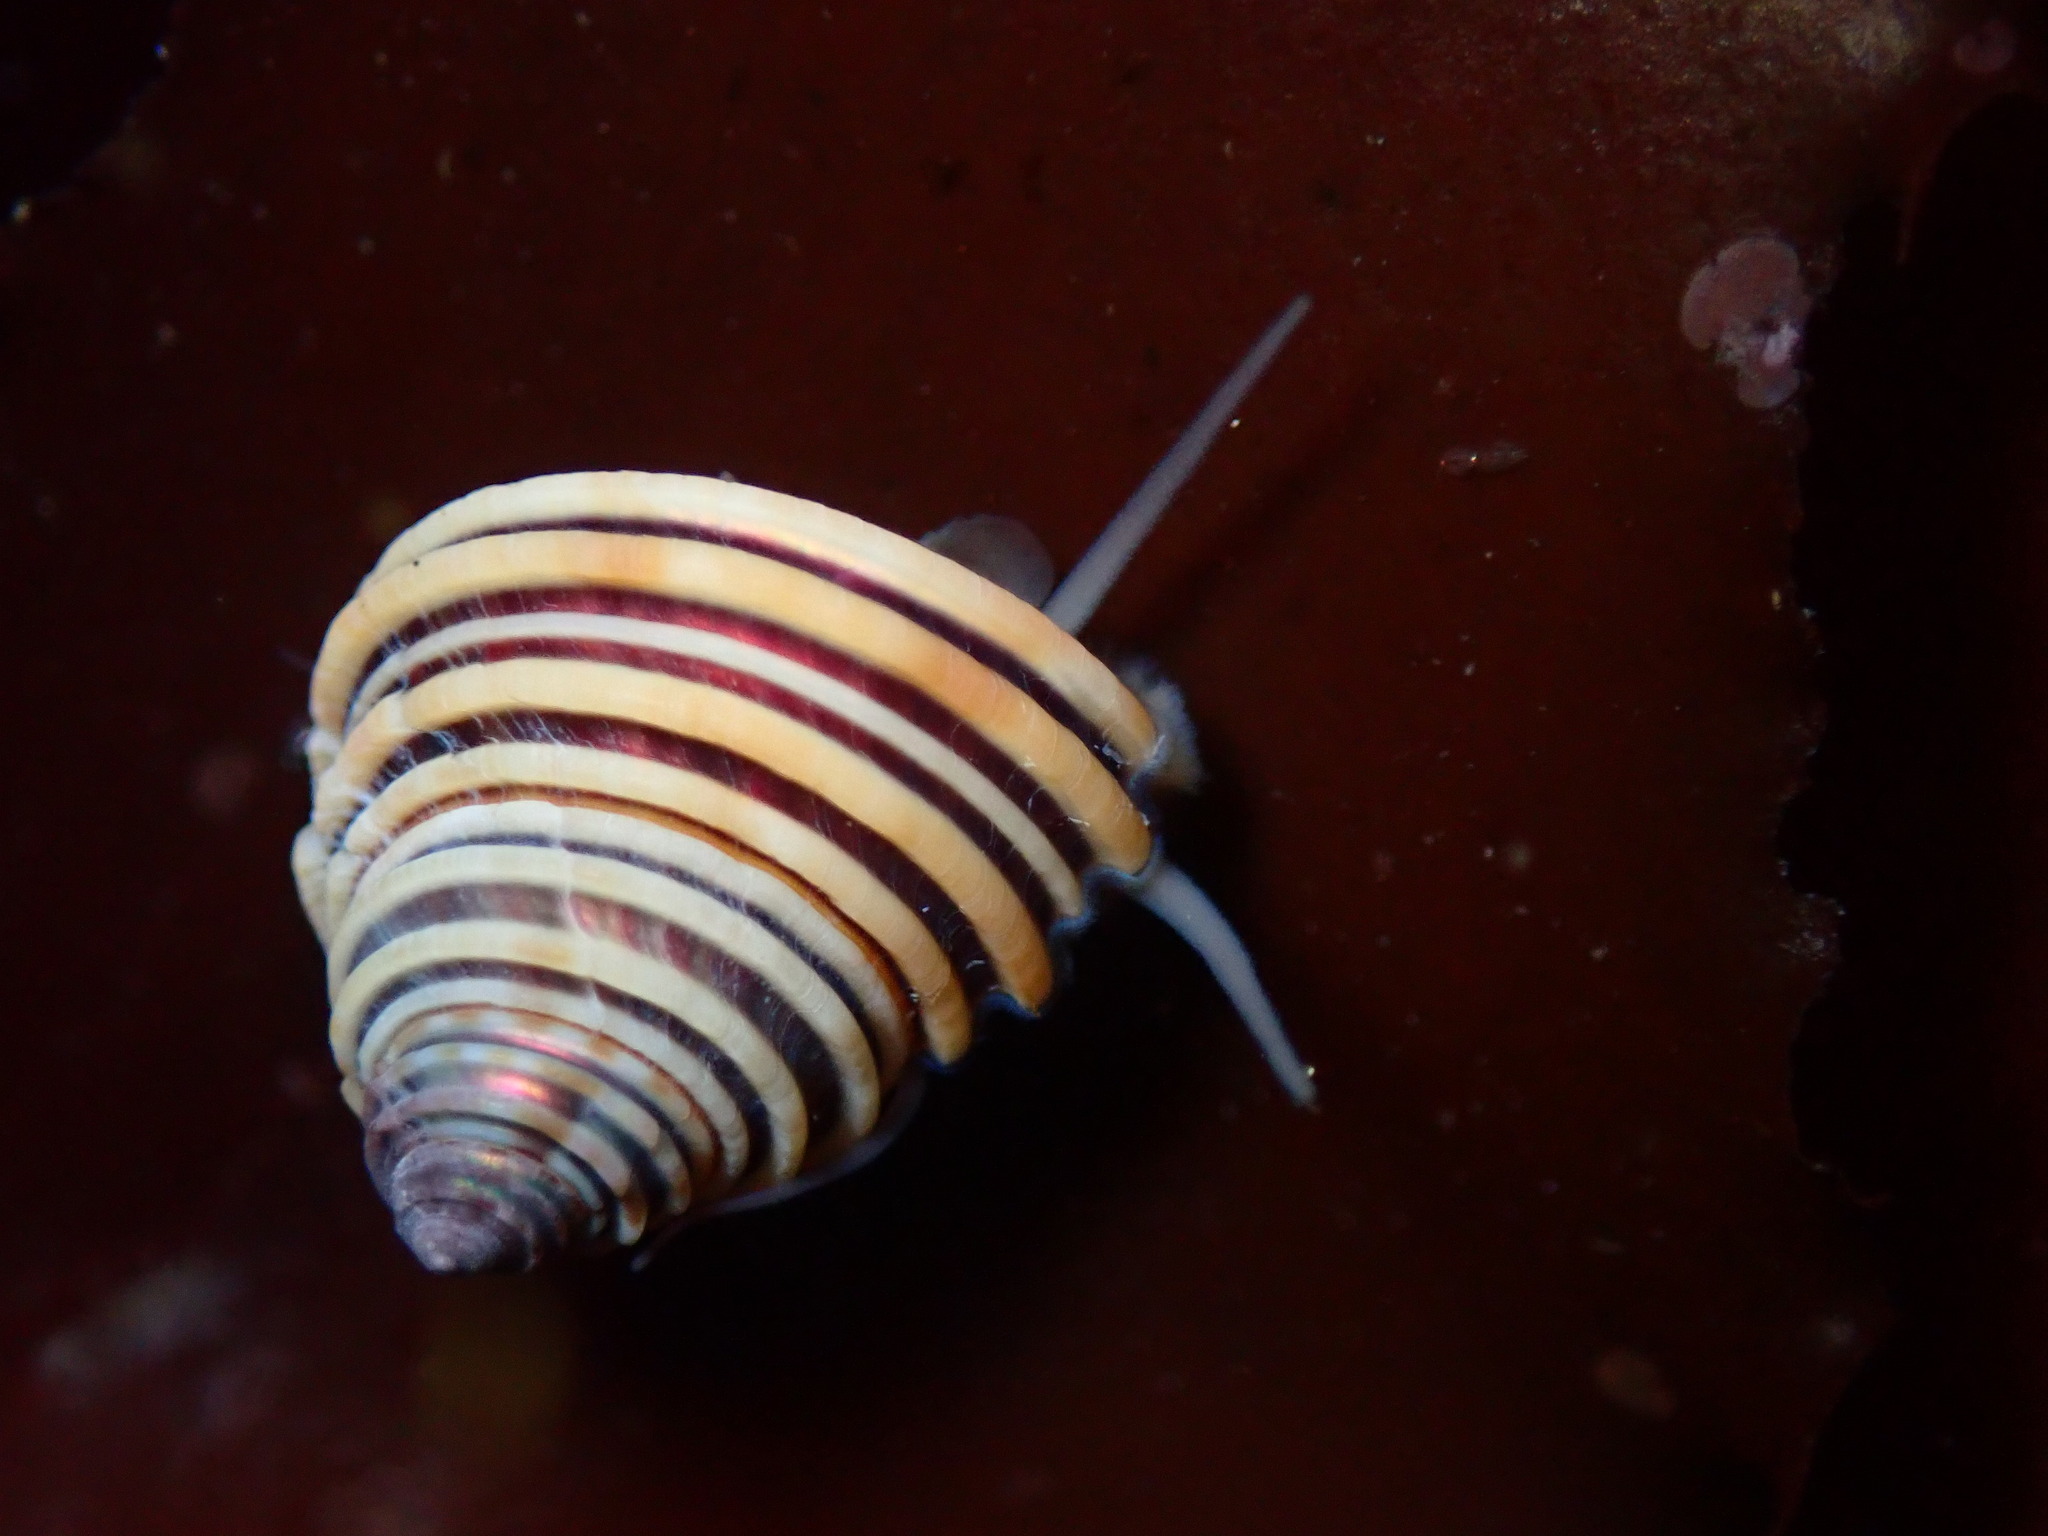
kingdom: Animalia
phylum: Mollusca
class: Gastropoda
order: Trochida
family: Calliostomatidae
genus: Calliostoma
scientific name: Calliostoma canaliculatum
